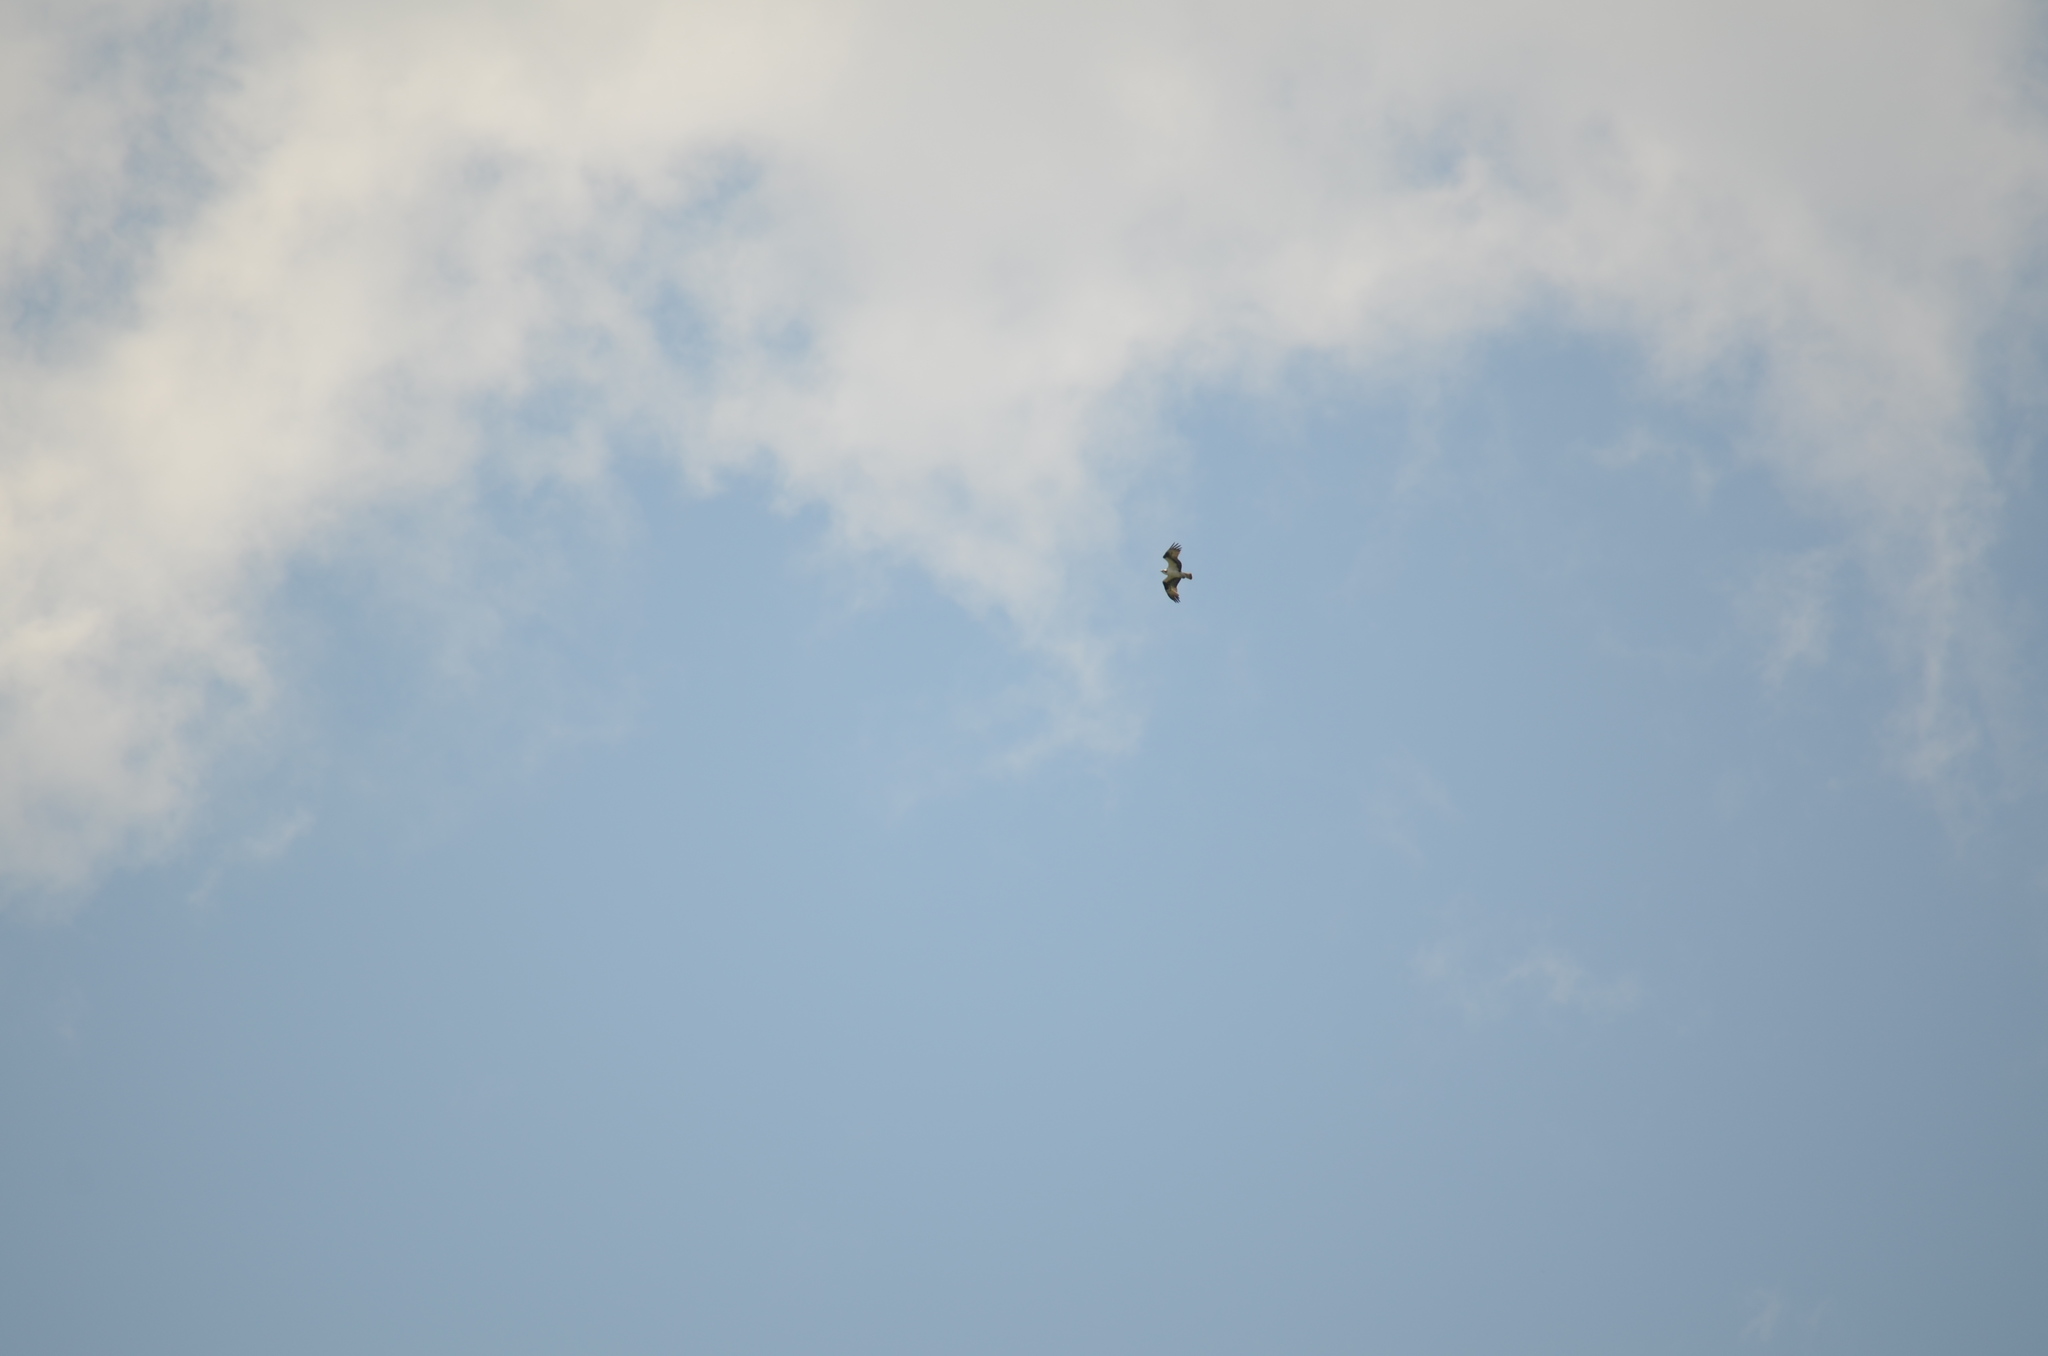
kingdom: Animalia
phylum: Chordata
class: Aves
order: Accipitriformes
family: Pandionidae
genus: Pandion
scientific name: Pandion haliaetus
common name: Osprey
